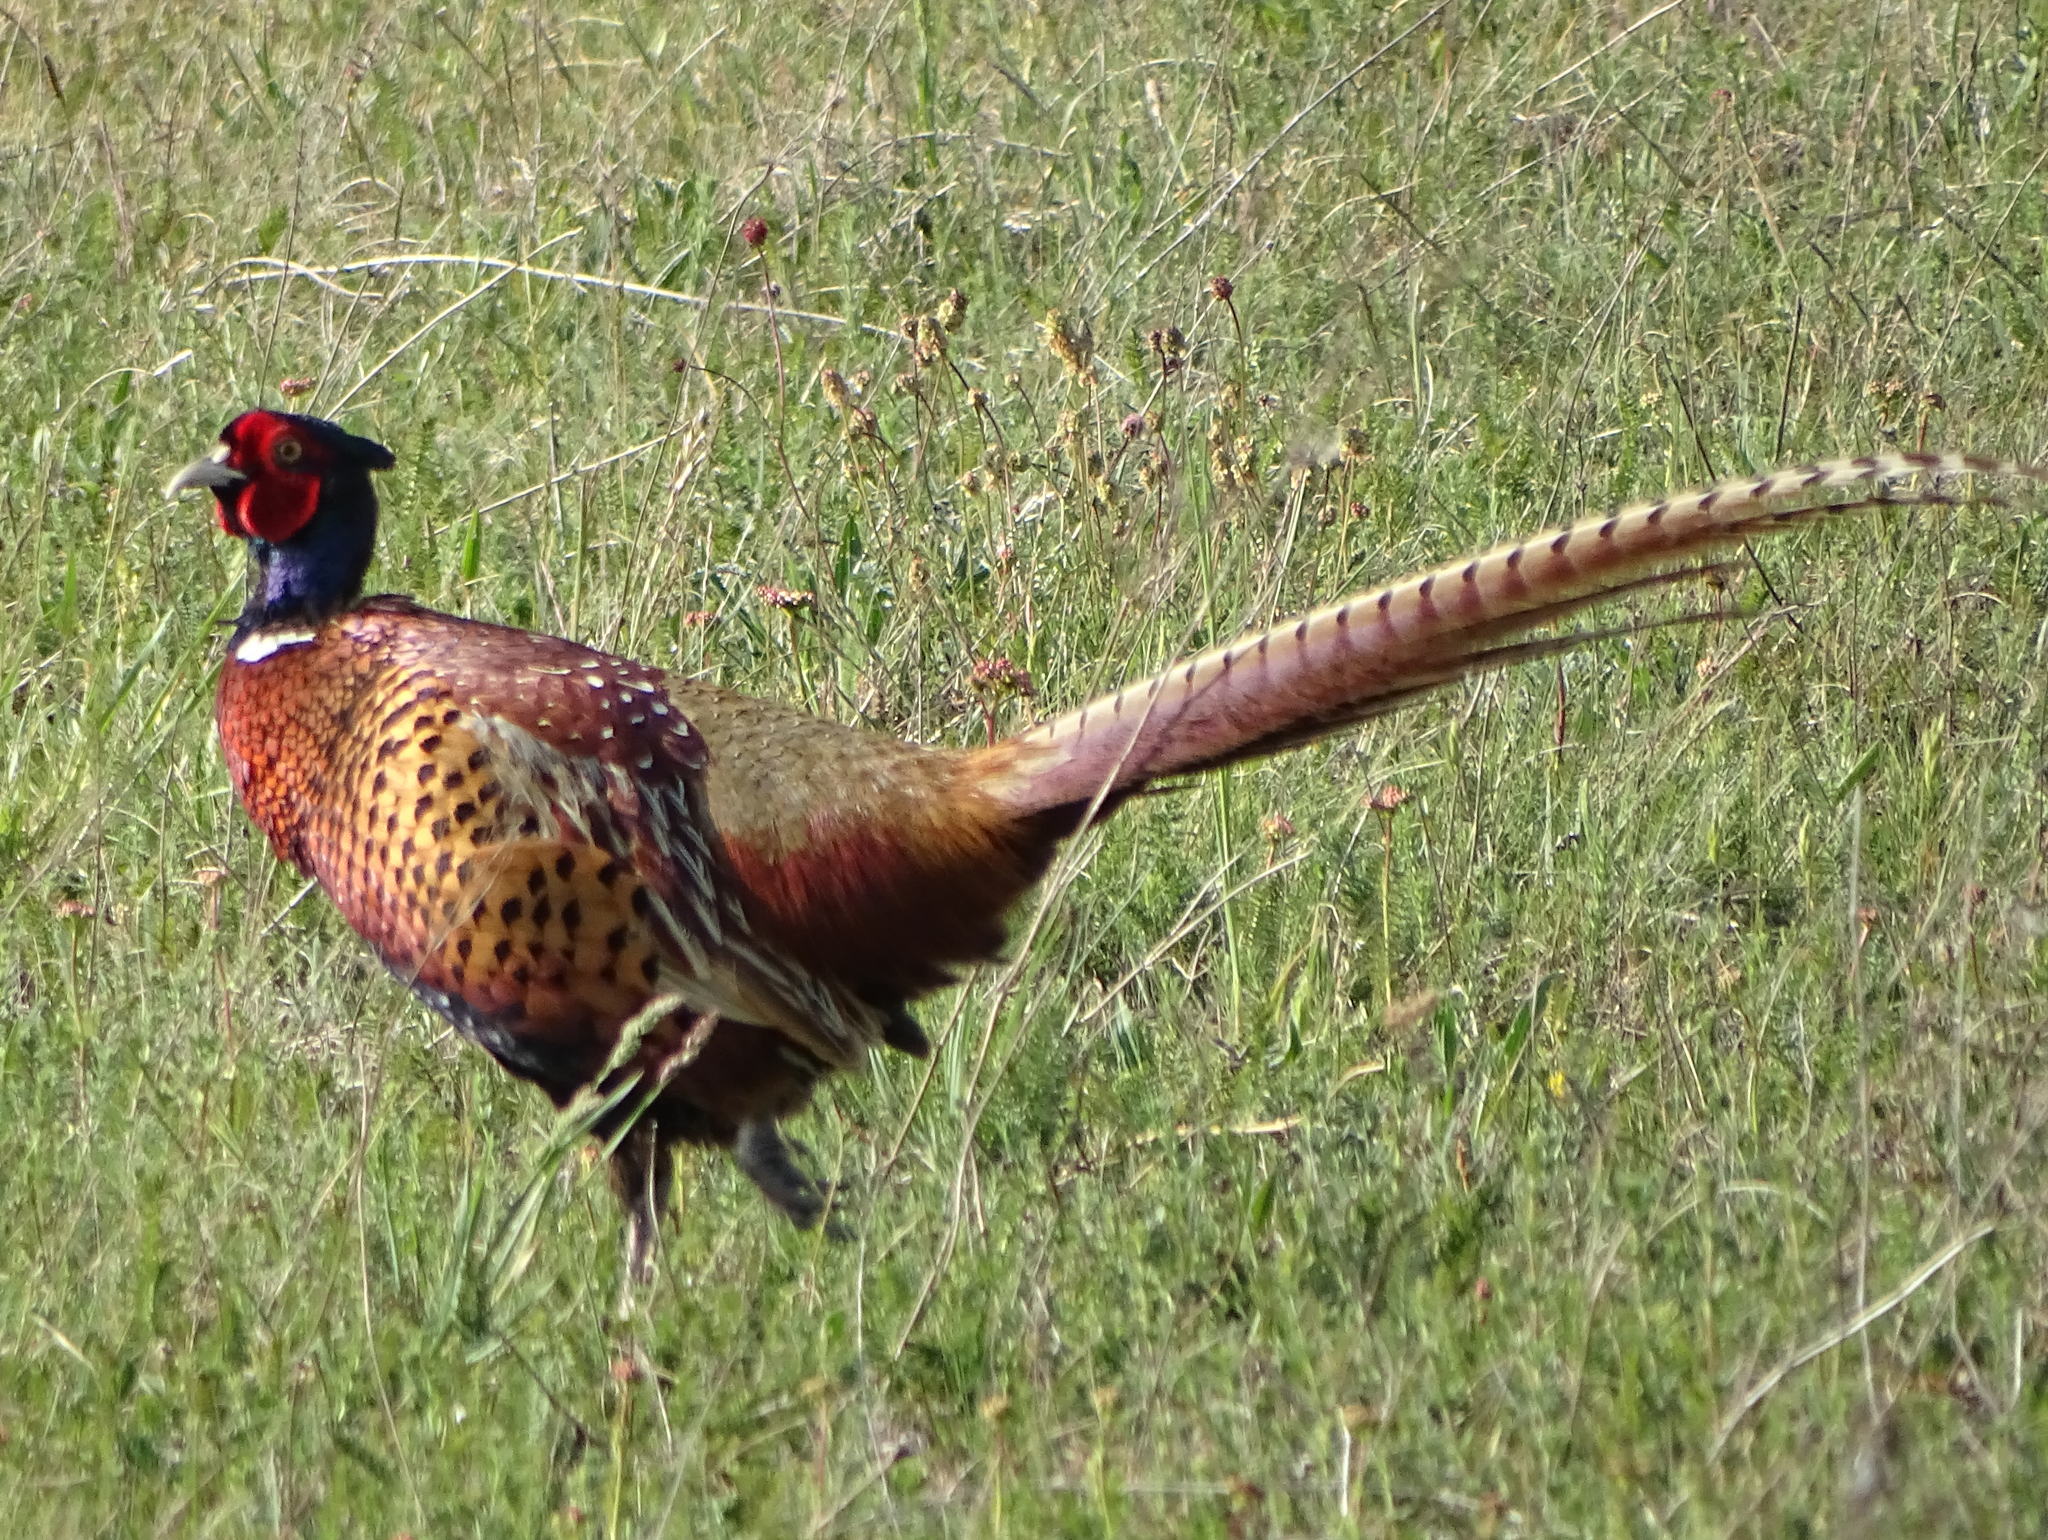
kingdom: Animalia
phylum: Chordata
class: Aves
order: Galliformes
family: Phasianidae
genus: Phasianus
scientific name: Phasianus colchicus
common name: Common pheasant
